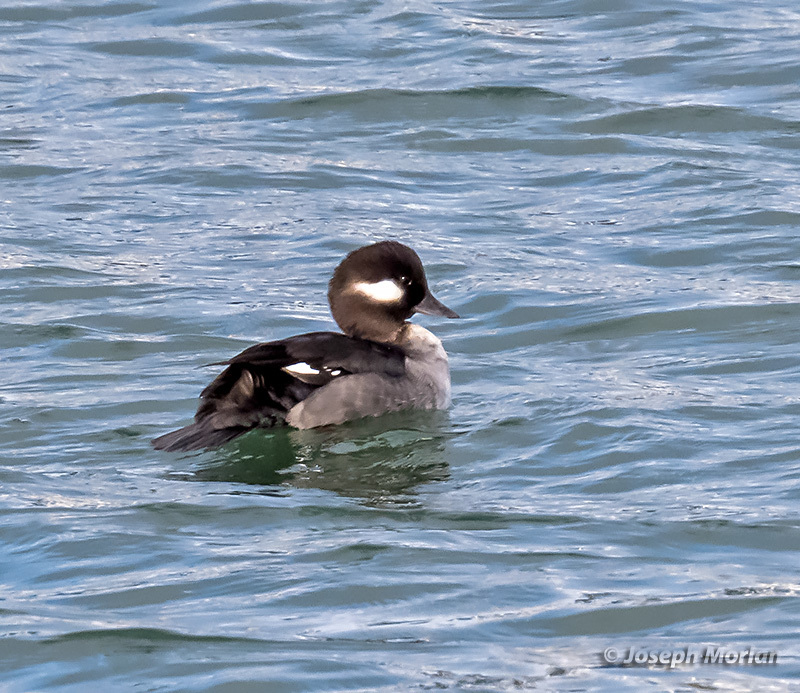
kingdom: Animalia
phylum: Chordata
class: Aves
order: Anseriformes
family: Anatidae
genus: Bucephala
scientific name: Bucephala albeola
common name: Bufflehead
